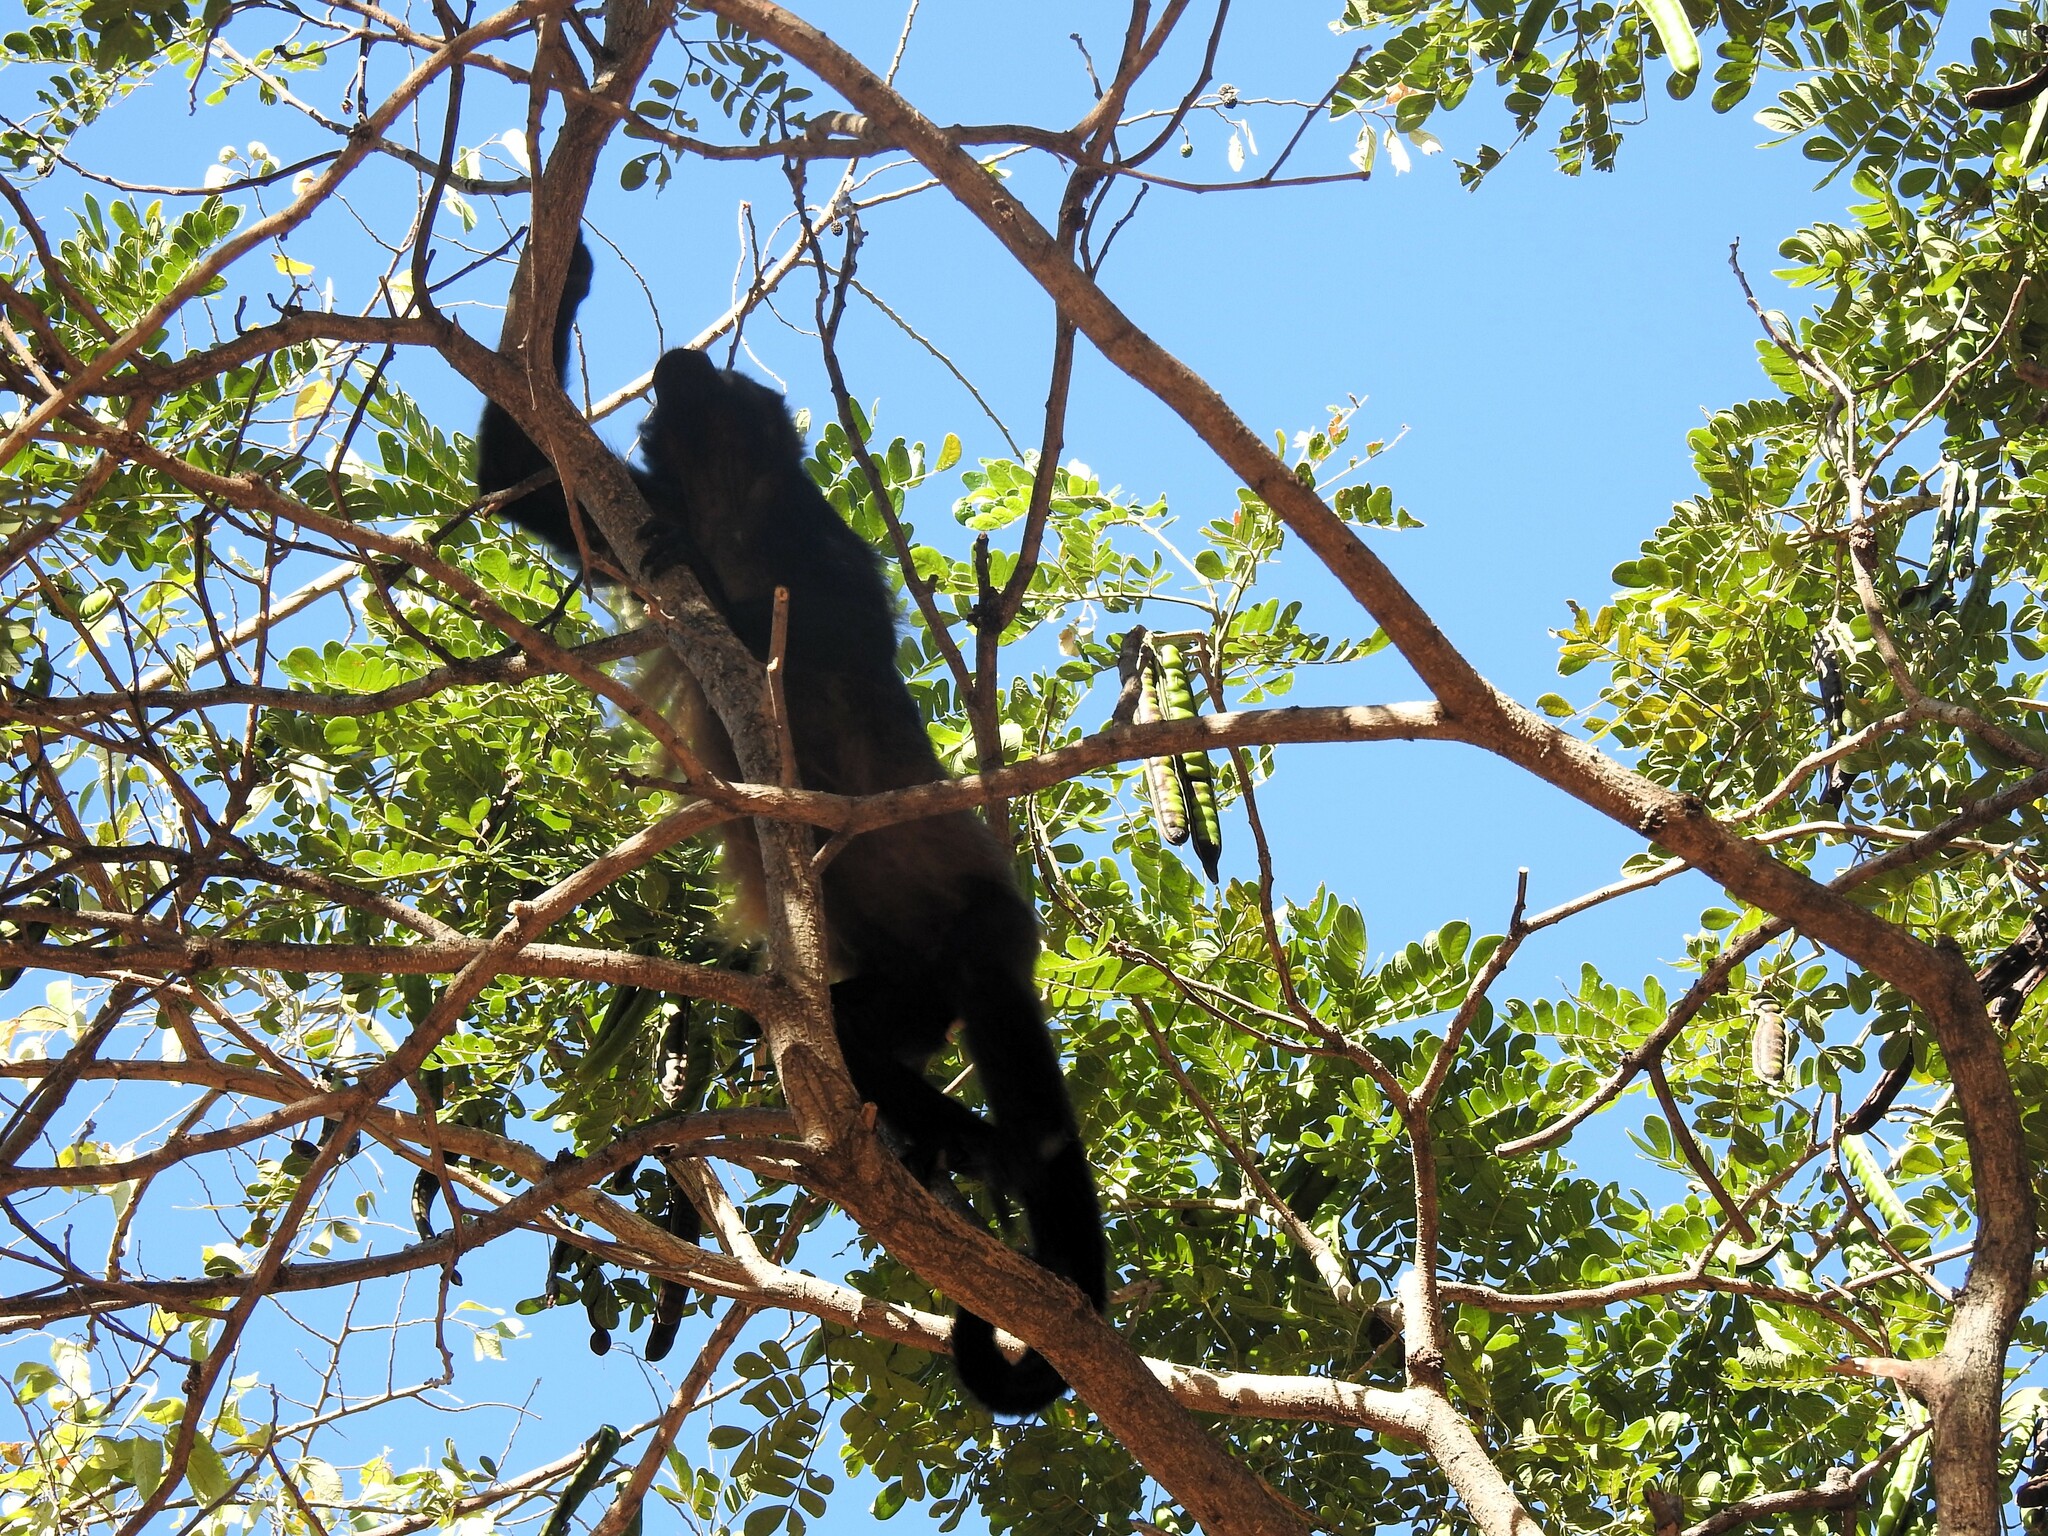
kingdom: Animalia
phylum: Chordata
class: Mammalia
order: Primates
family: Atelidae
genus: Alouatta
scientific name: Alouatta palliata
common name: Mantled howler
